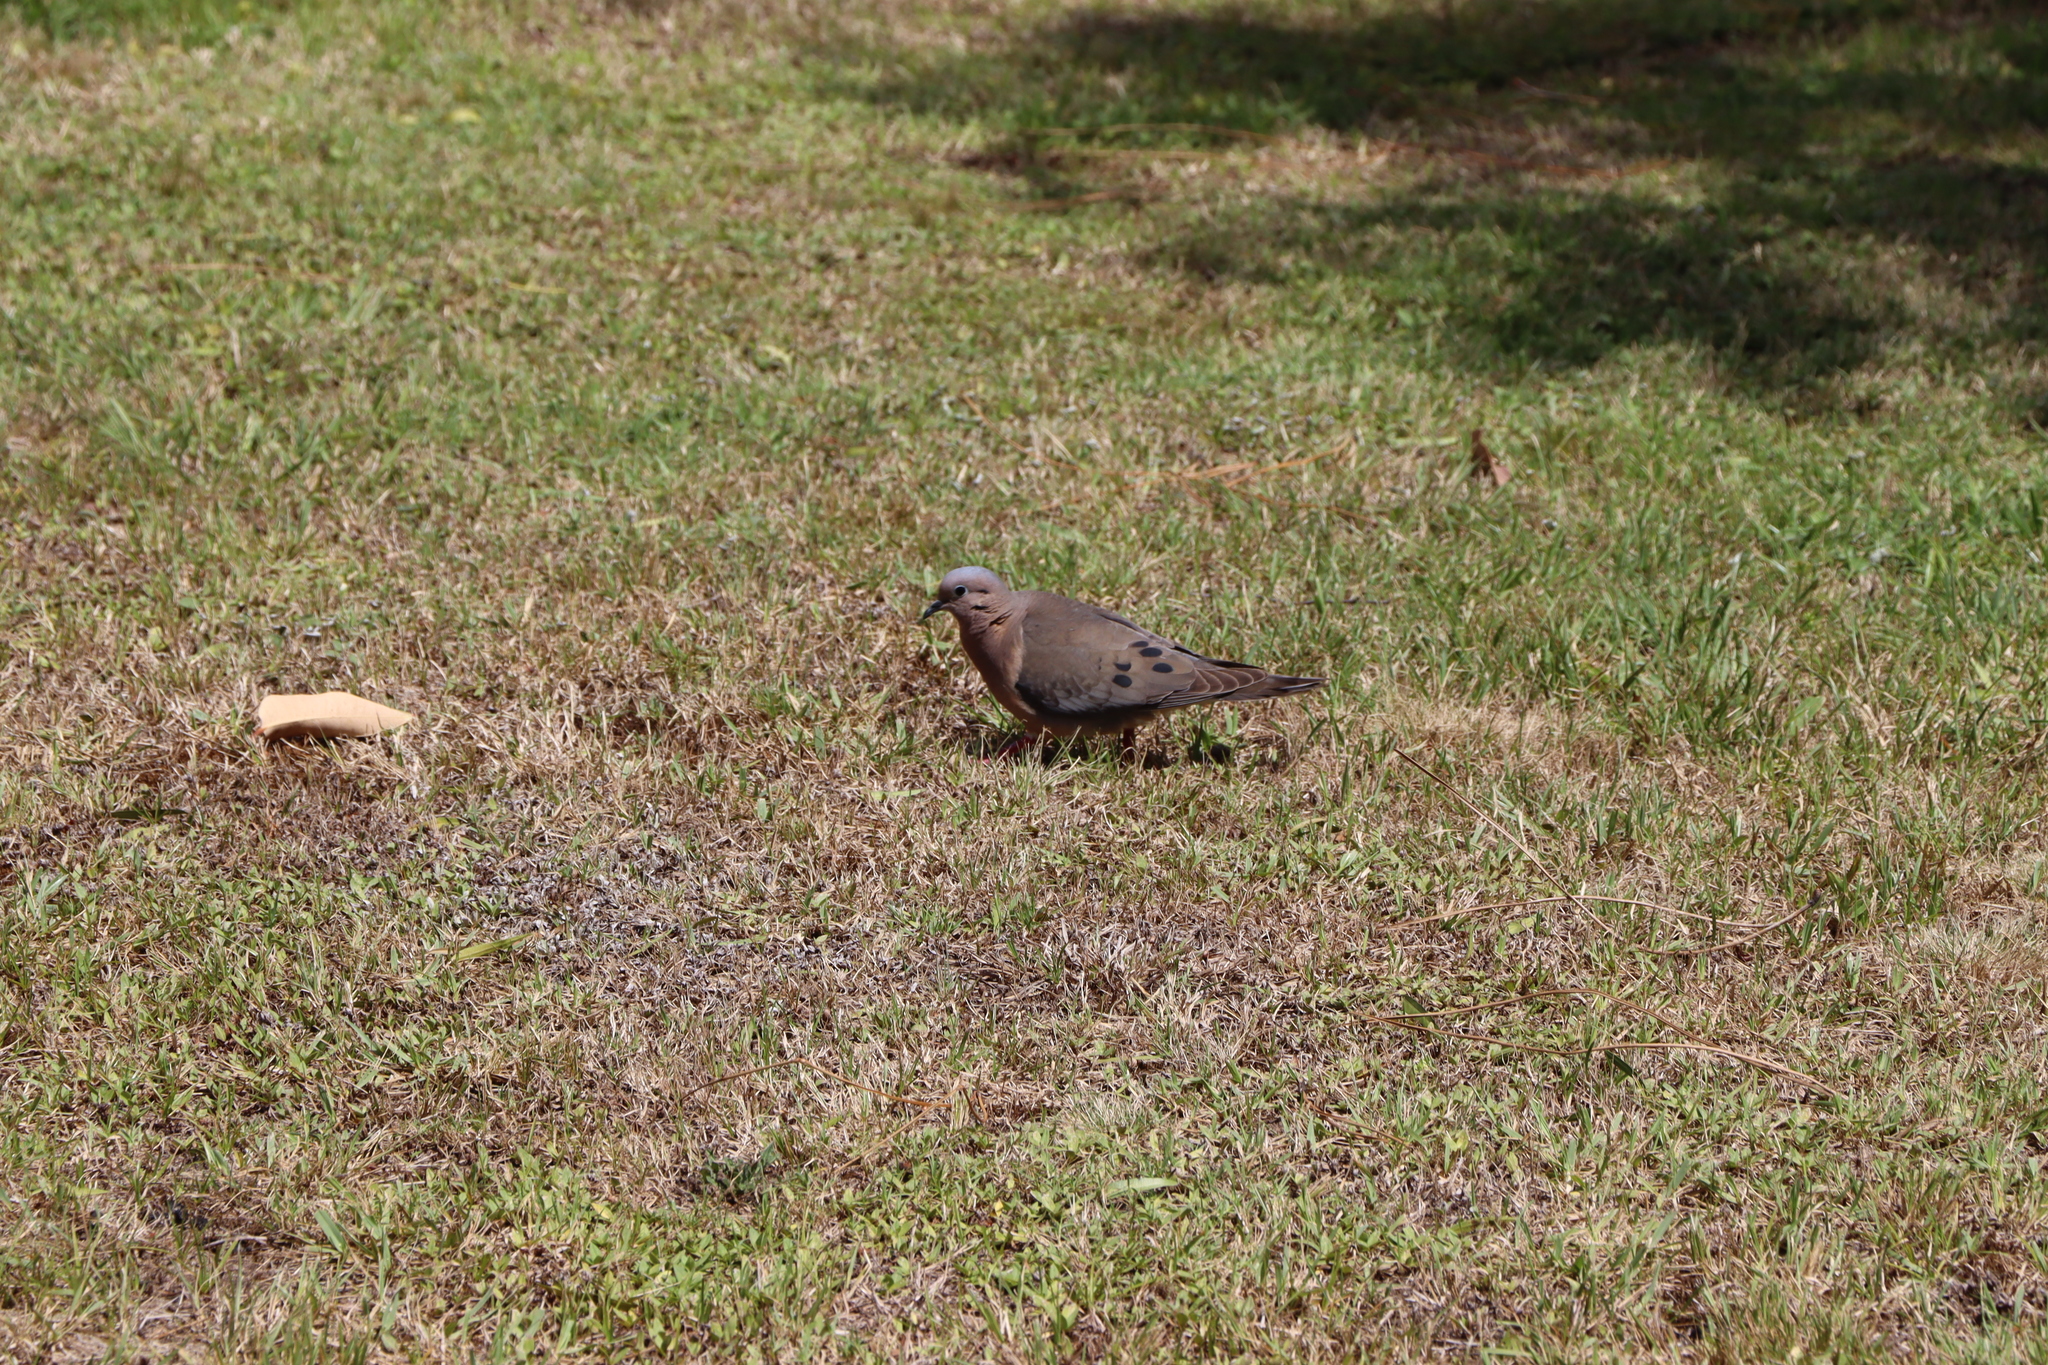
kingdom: Animalia
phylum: Chordata
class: Aves
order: Columbiformes
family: Columbidae
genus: Zenaida
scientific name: Zenaida auriculata
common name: Eared dove
